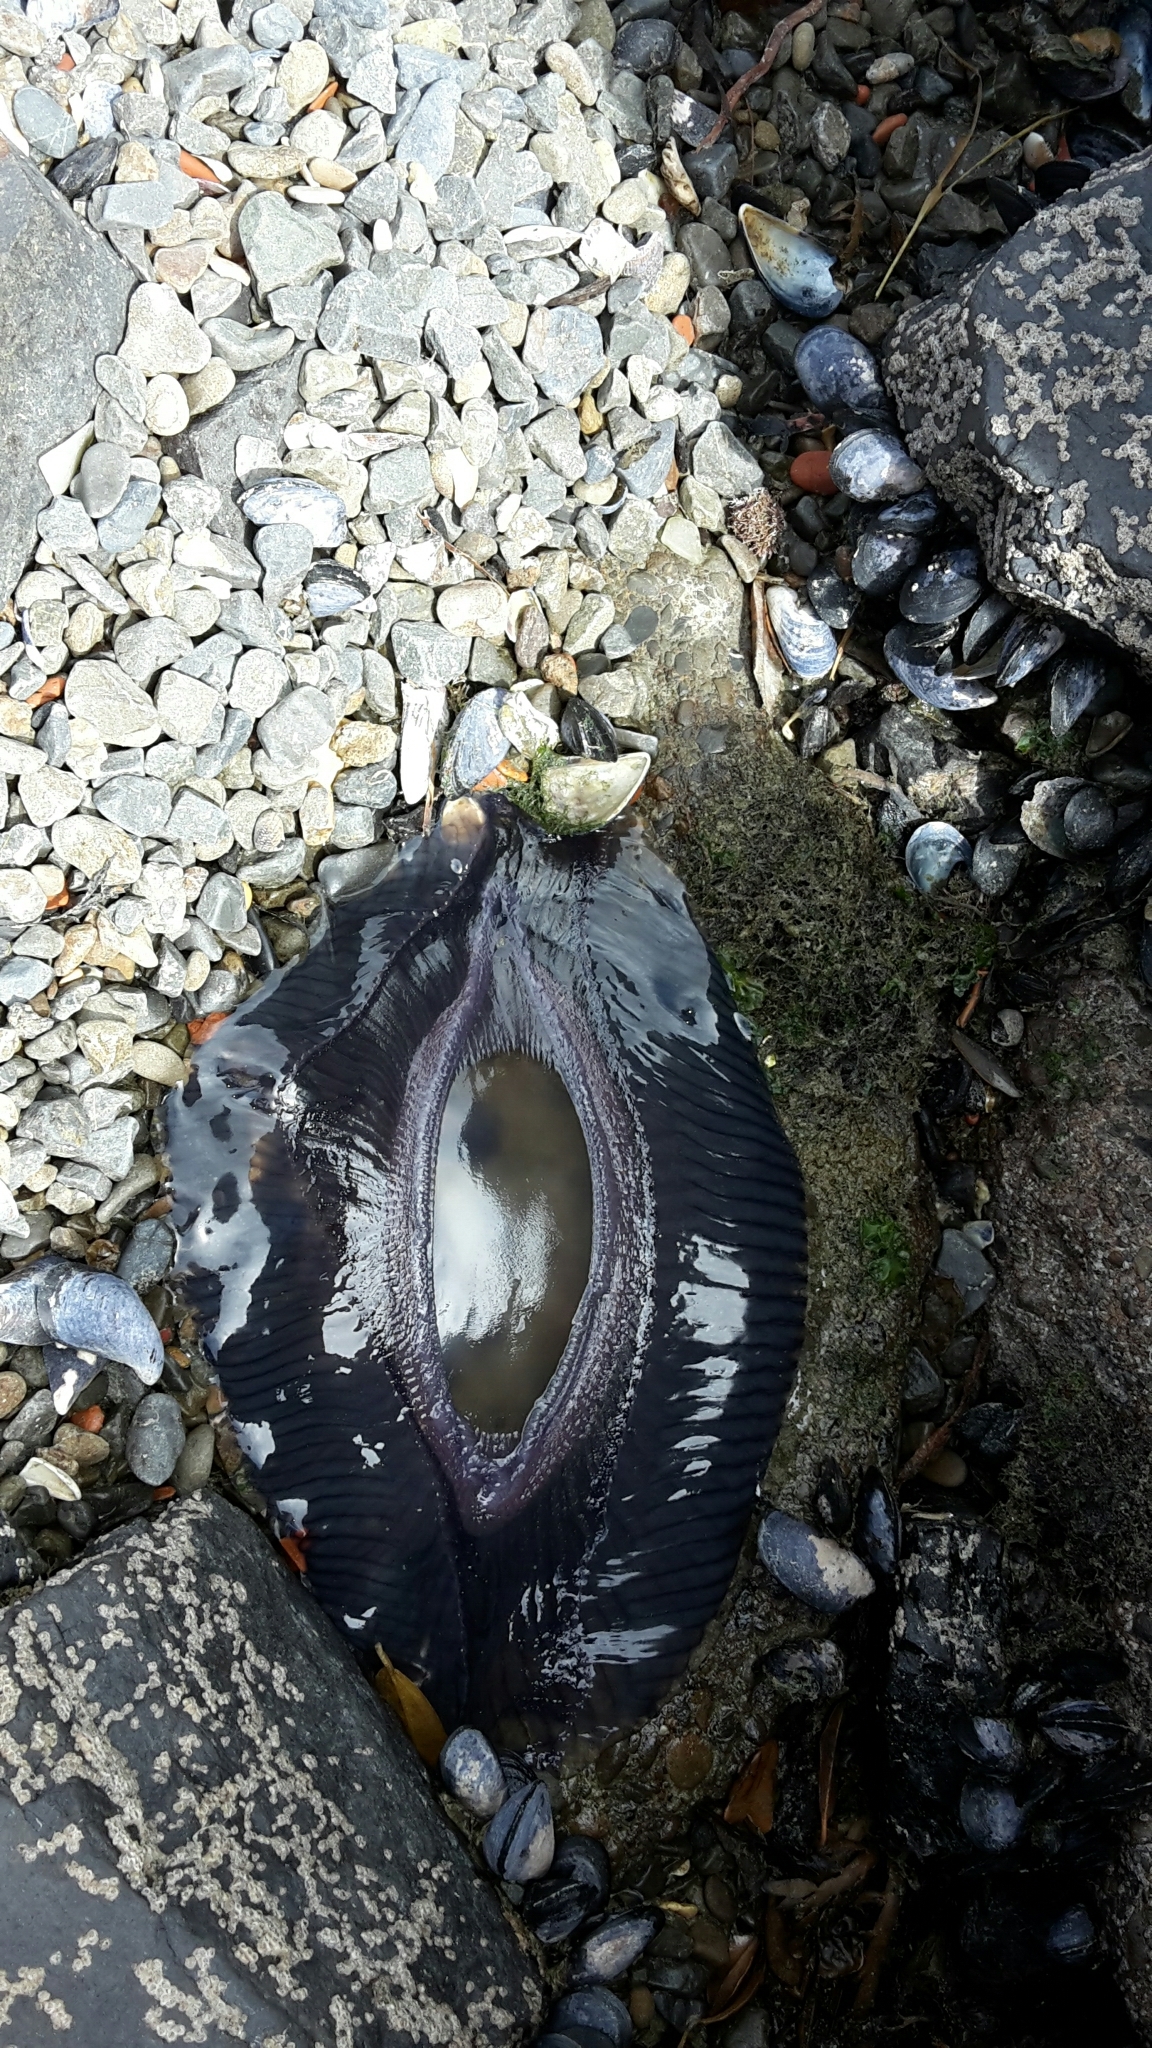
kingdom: Animalia
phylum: Cnidaria
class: Hydrozoa
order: Leptothecata
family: Aequoreidae
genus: Aequorea
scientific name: Aequorea forskalea
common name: Many-ribbed jellyfish
